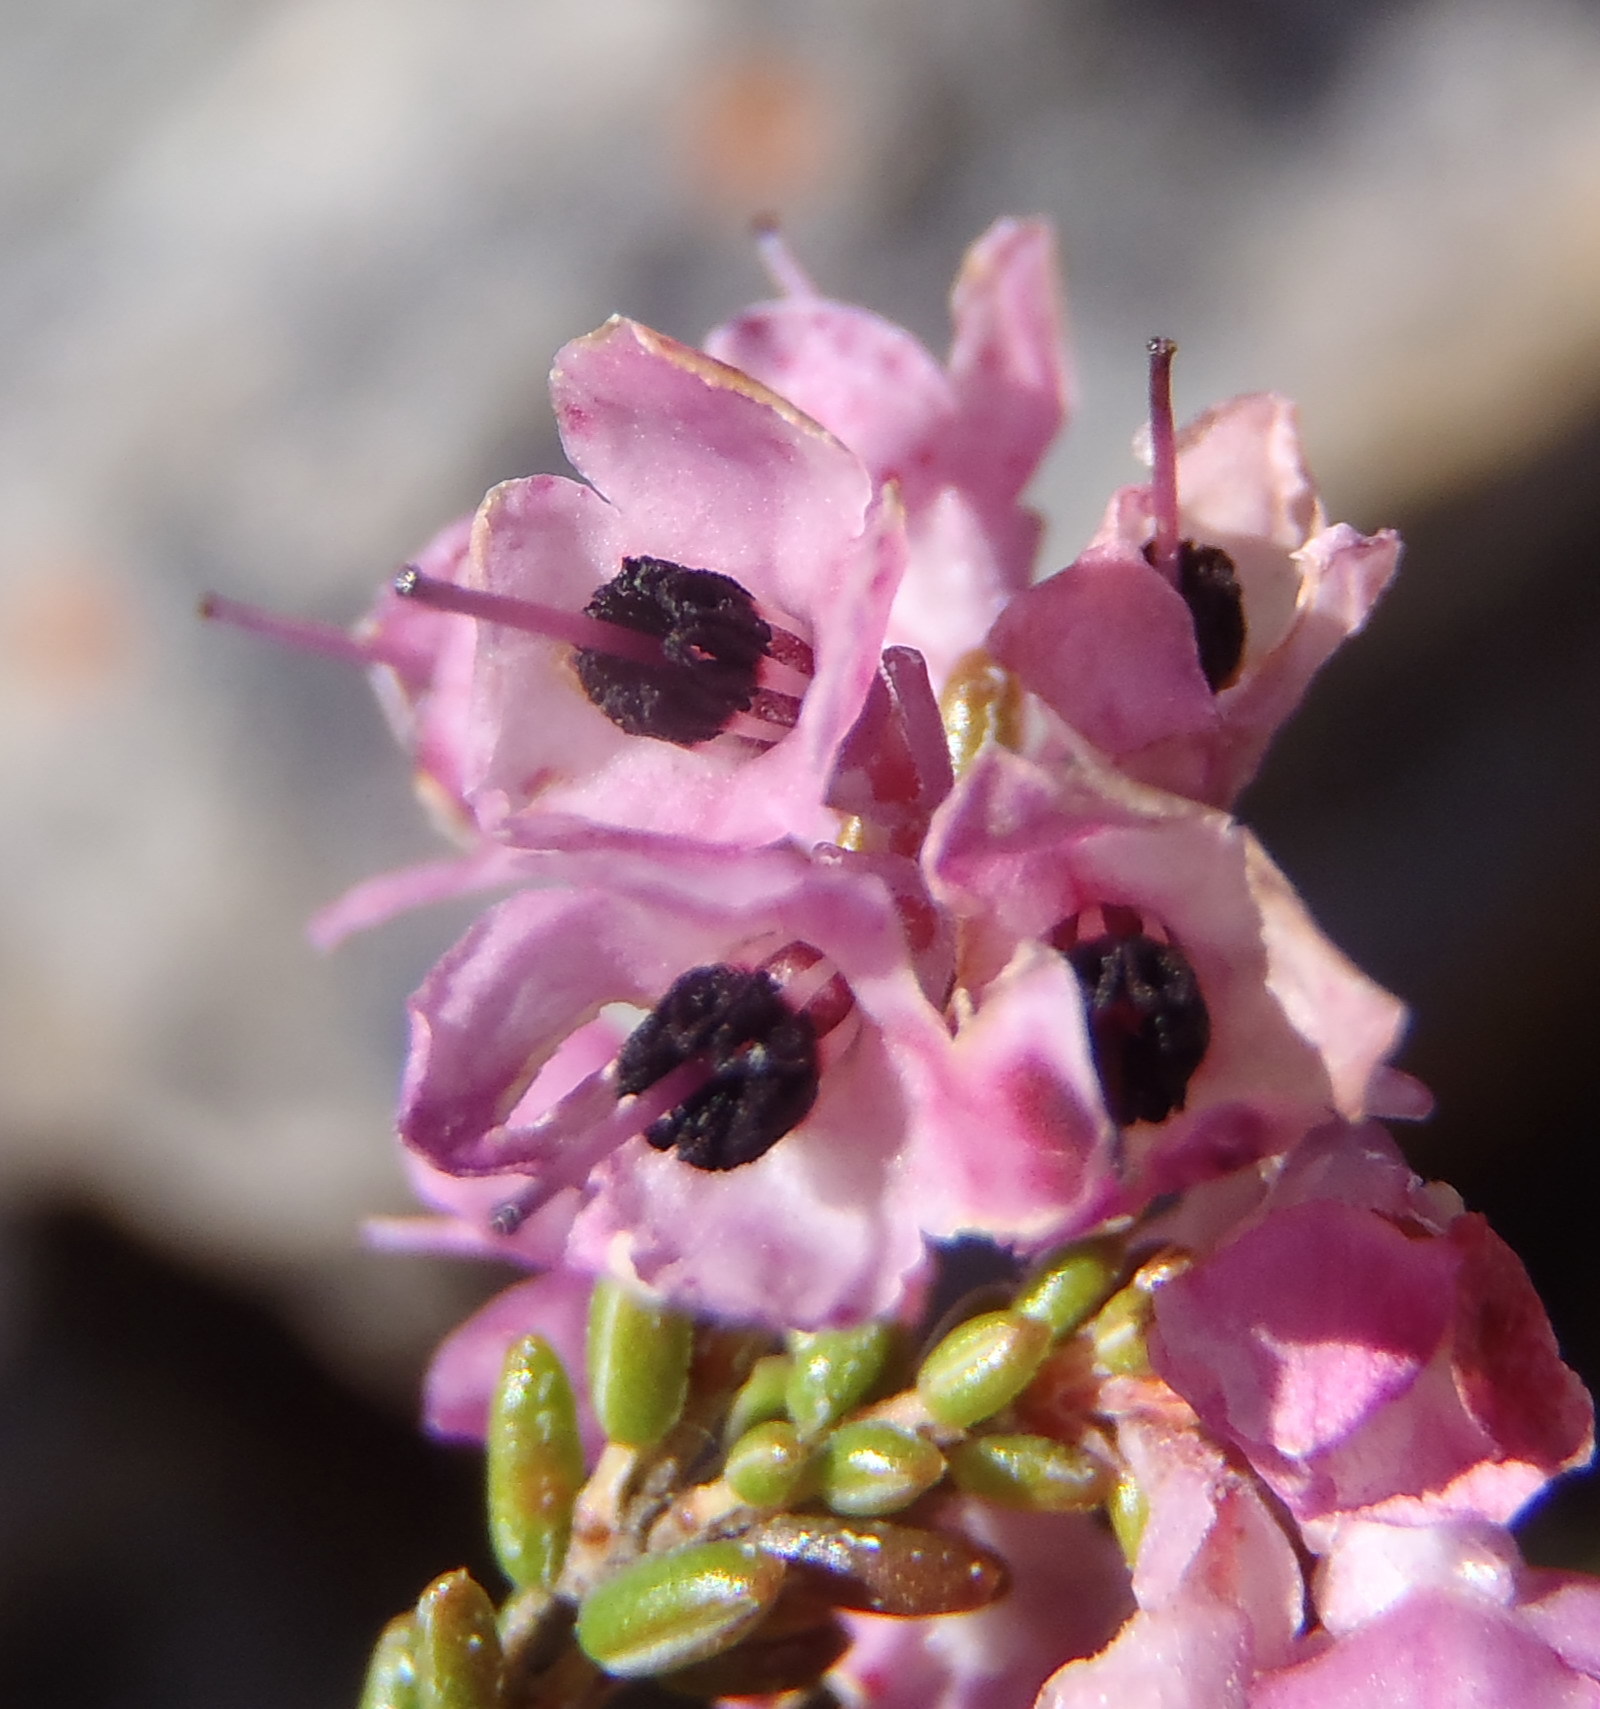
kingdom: Plantae
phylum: Tracheophyta
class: Magnoliopsida
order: Ericales
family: Ericaceae
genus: Erica
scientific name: Erica melanthera
